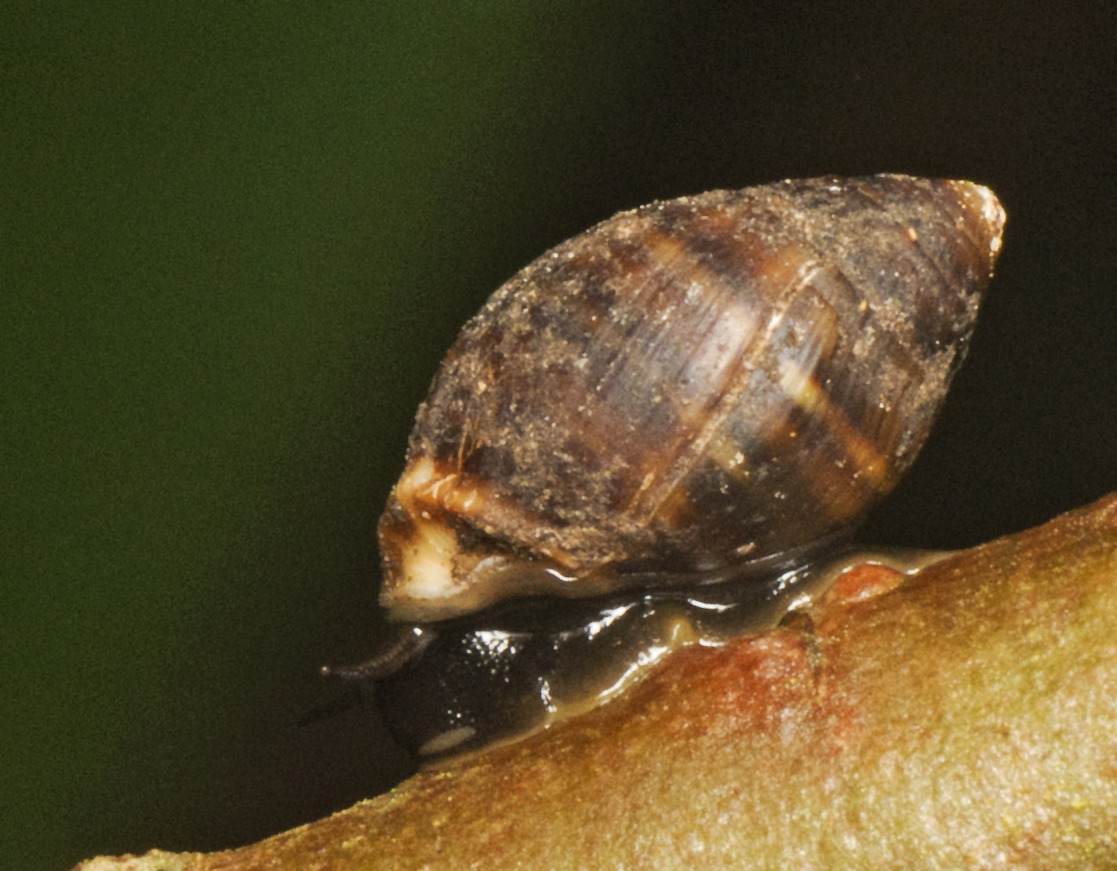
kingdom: Animalia
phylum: Mollusca
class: Gastropoda
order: Ellobiida
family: Ellobiidae
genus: Pleuroloba
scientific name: Pleuroloba quoyi
